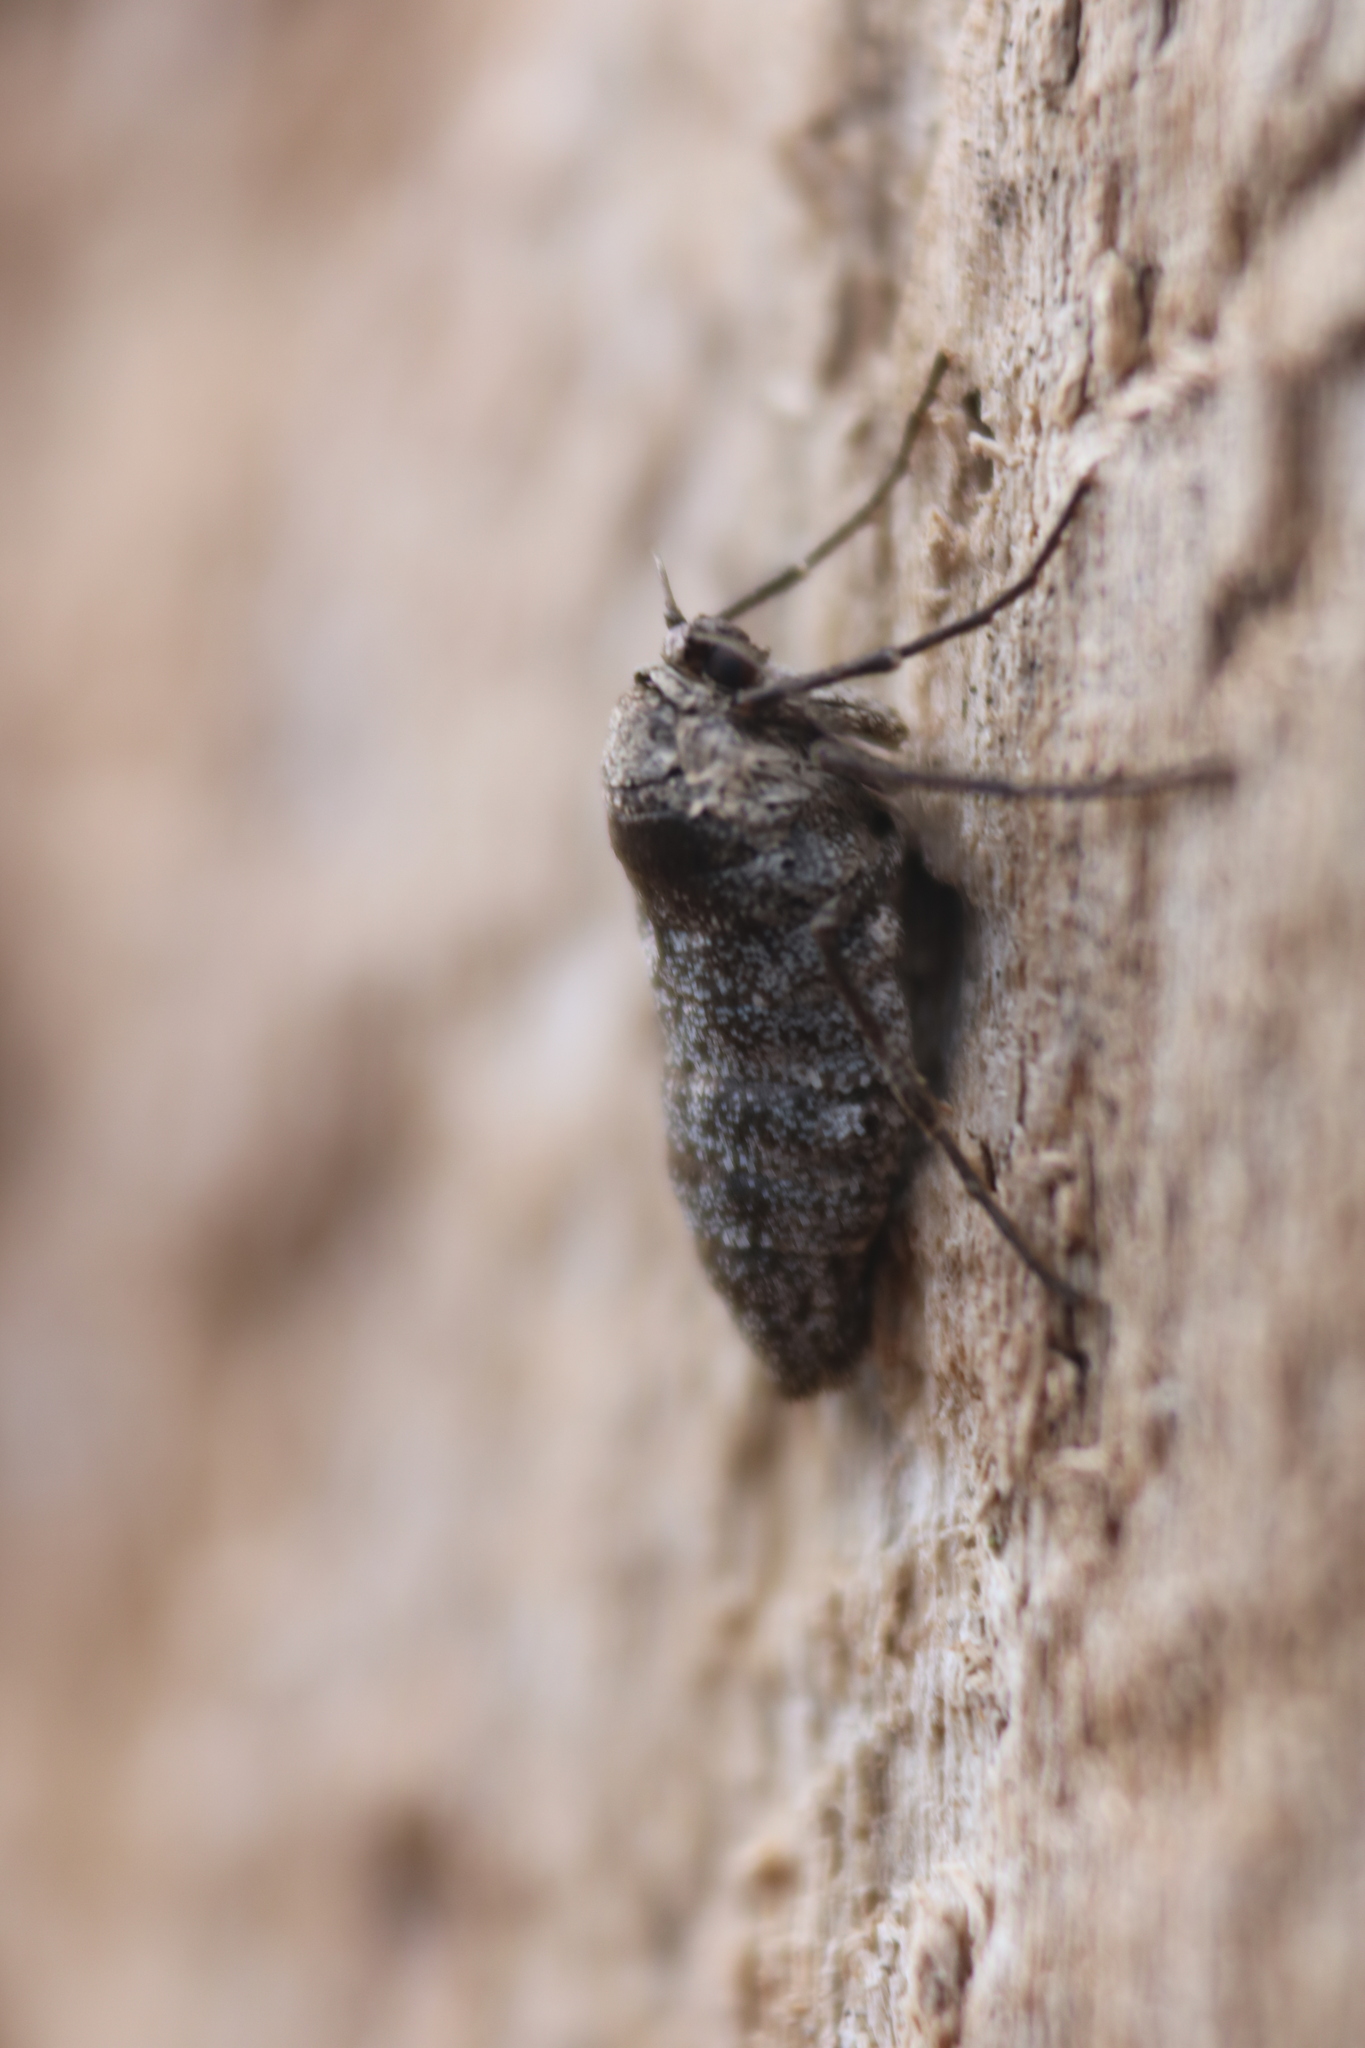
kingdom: Animalia
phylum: Arthropoda
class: Insecta
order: Lepidoptera
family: Geometridae
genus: Alsophila
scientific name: Alsophila pometaria
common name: Fall cankerworm
